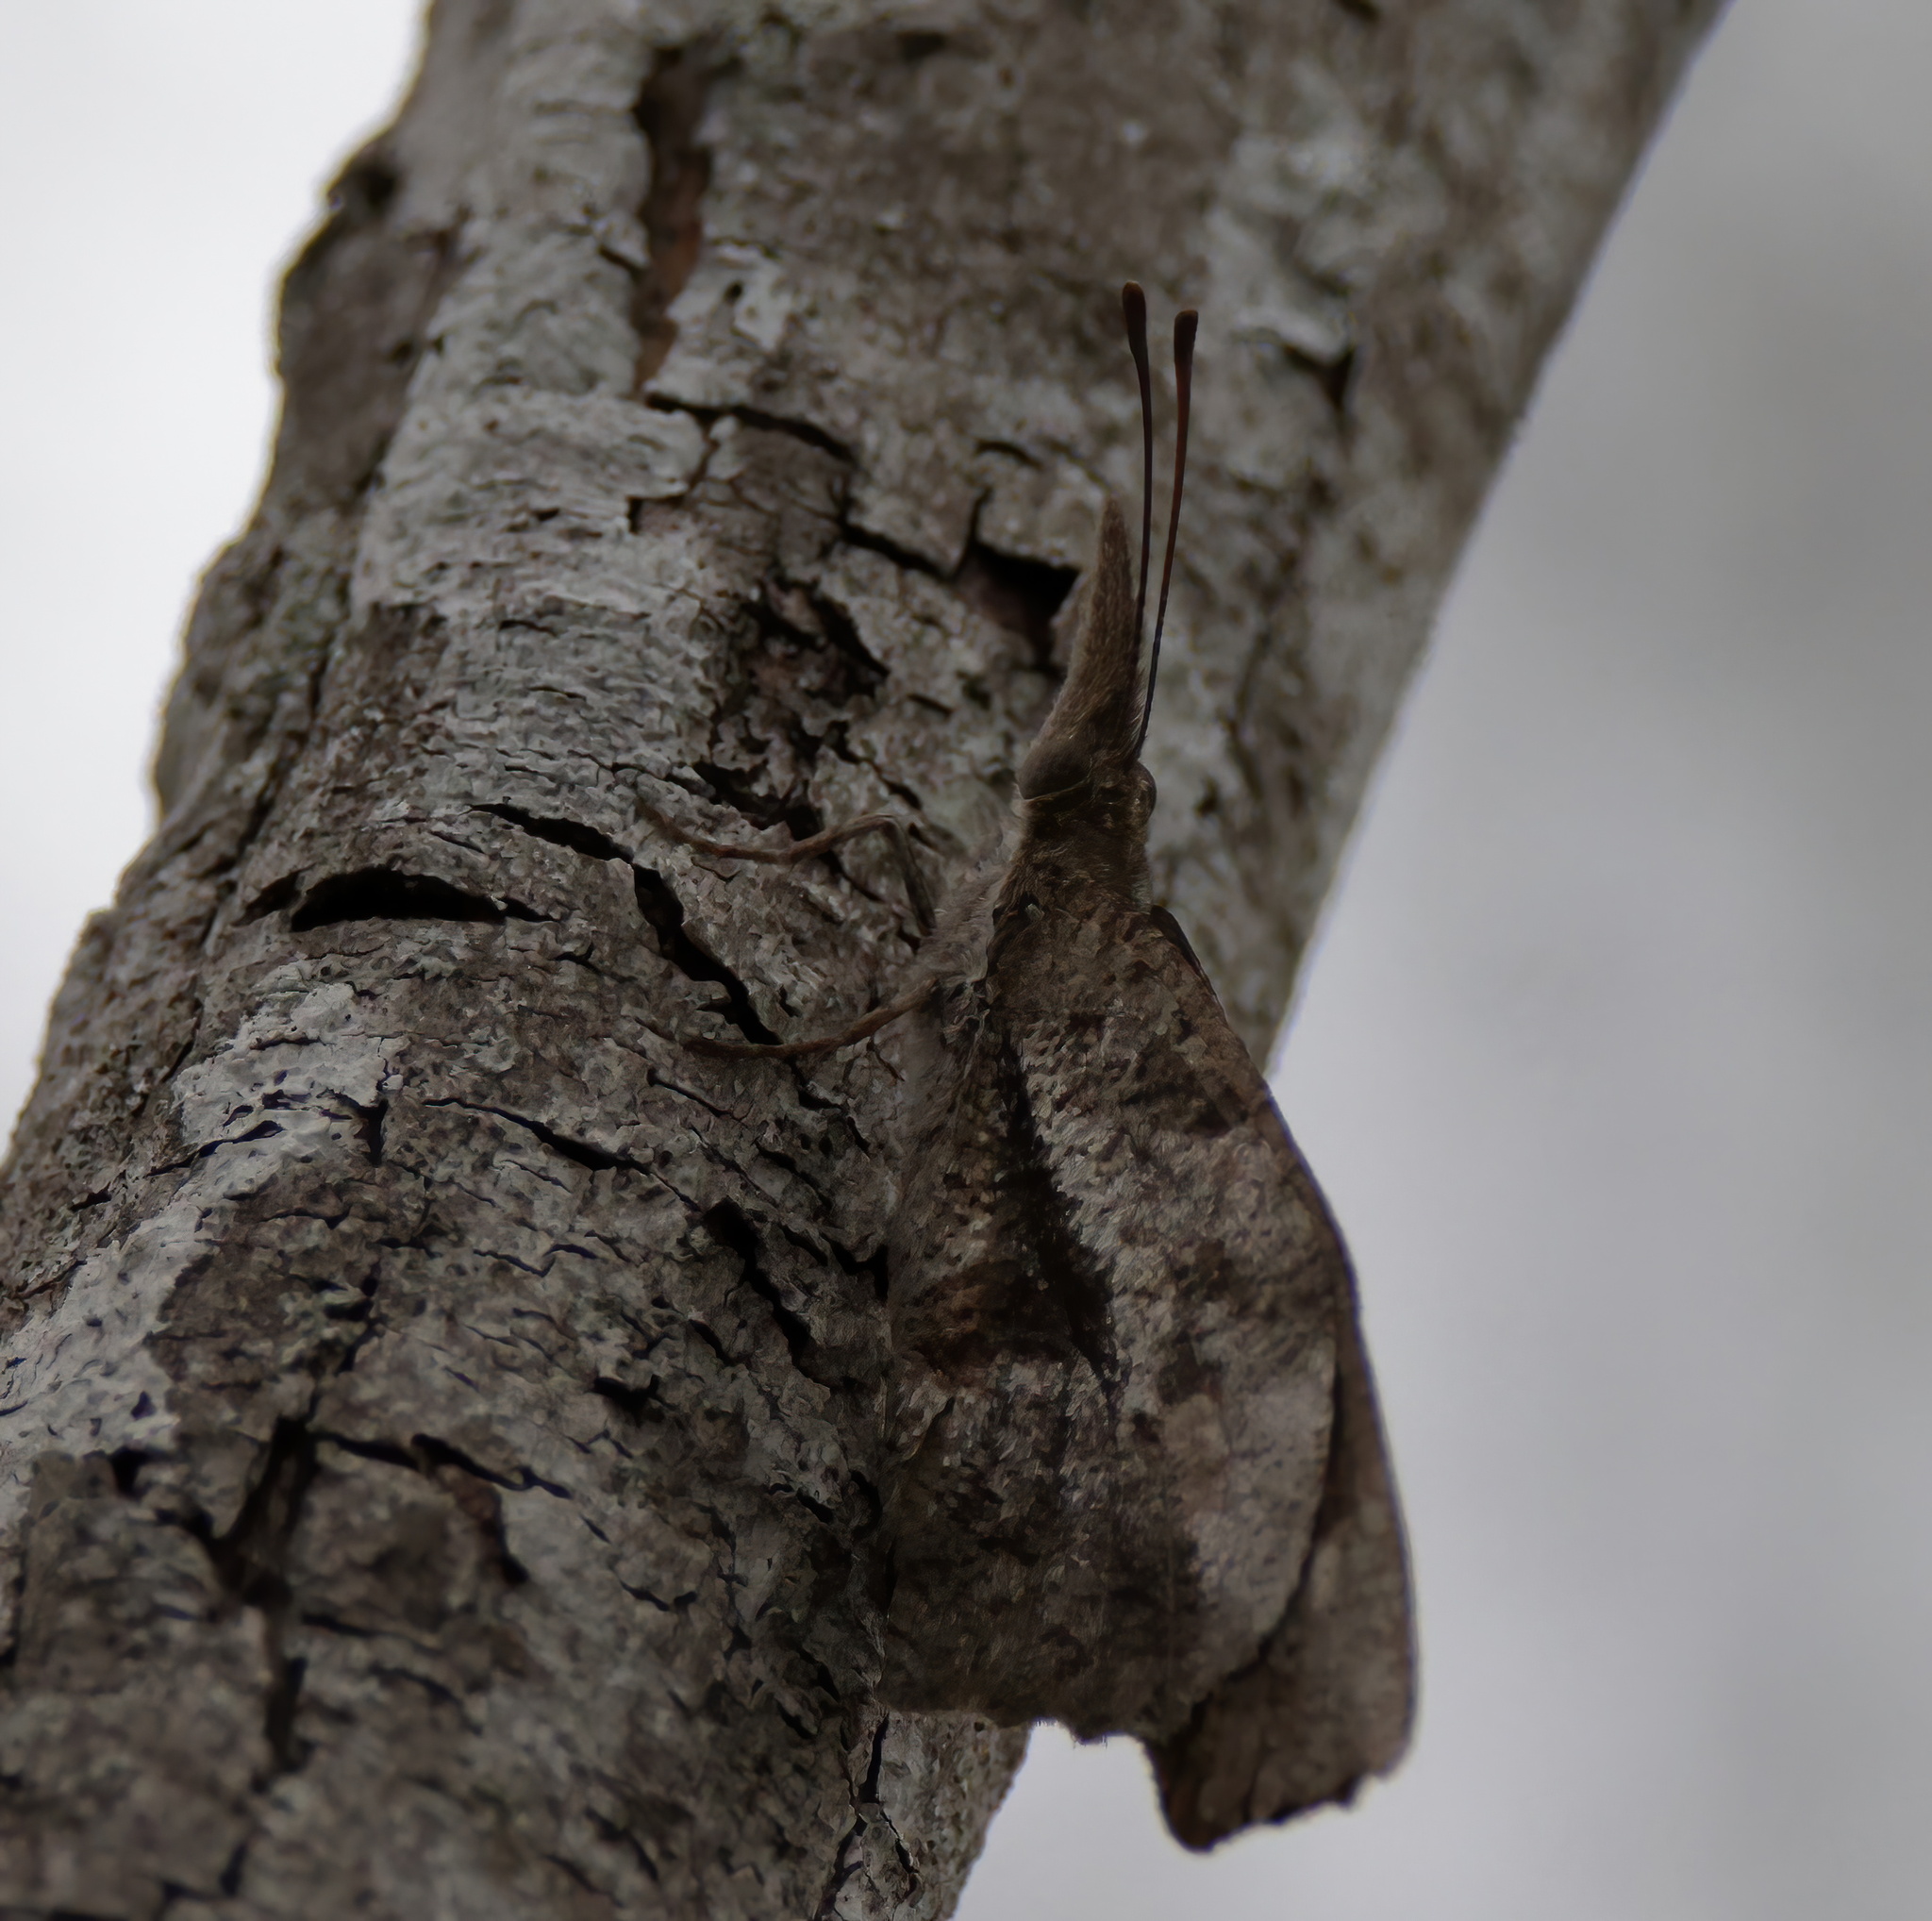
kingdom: Animalia
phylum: Arthropoda
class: Insecta
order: Lepidoptera
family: Nymphalidae
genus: Libytheana
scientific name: Libytheana carinenta
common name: American snout
